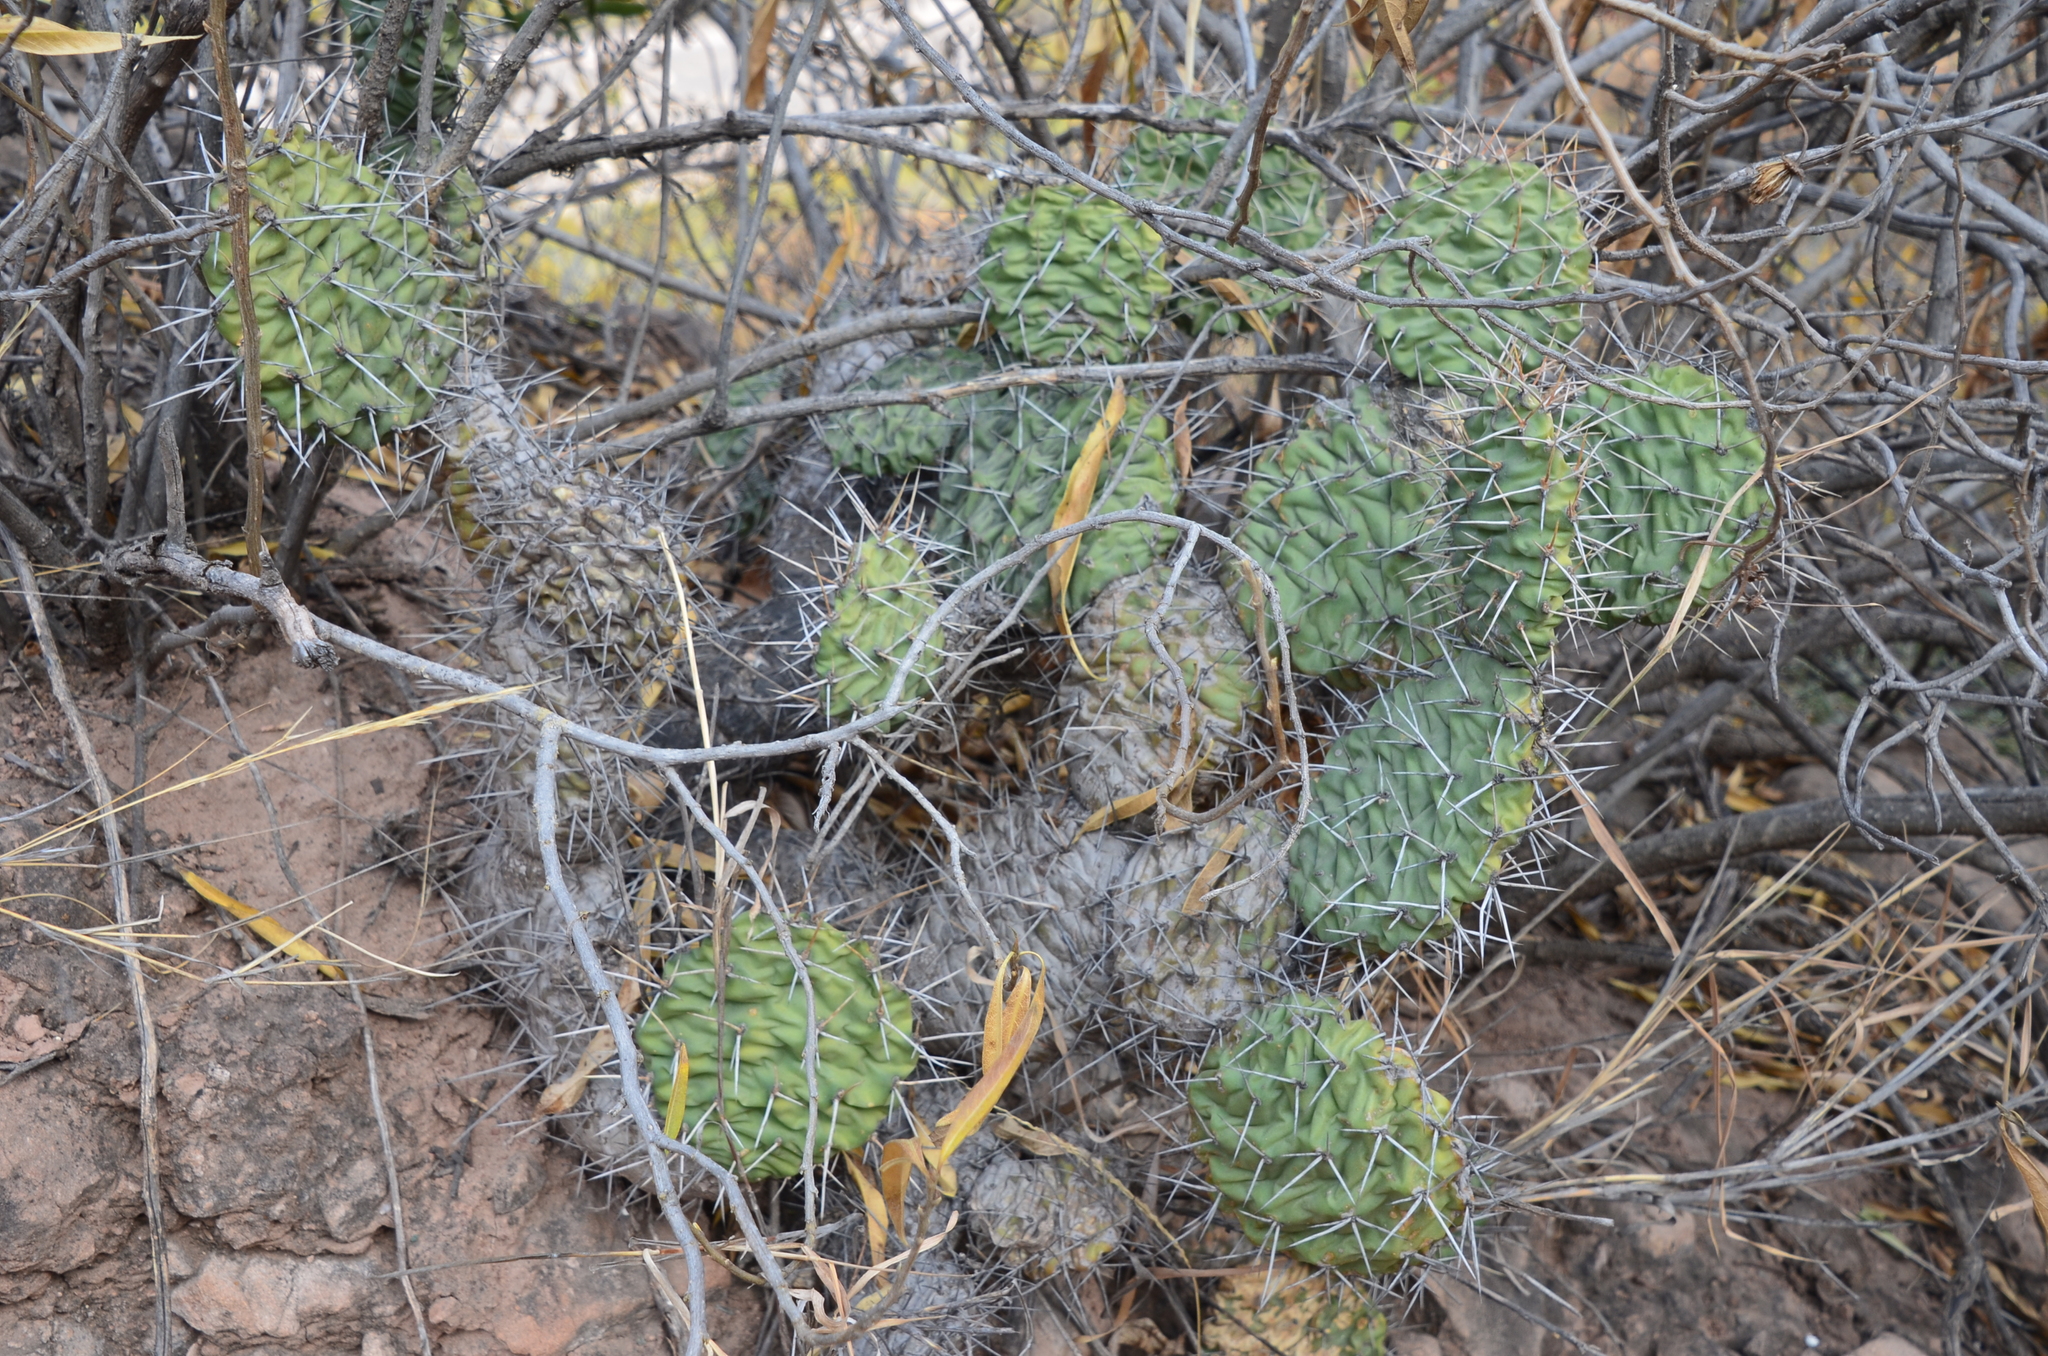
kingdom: Plantae
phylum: Tracheophyta
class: Magnoliopsida
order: Caryophyllales
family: Cactaceae
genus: Opuntia
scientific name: Opuntia sulphurea
